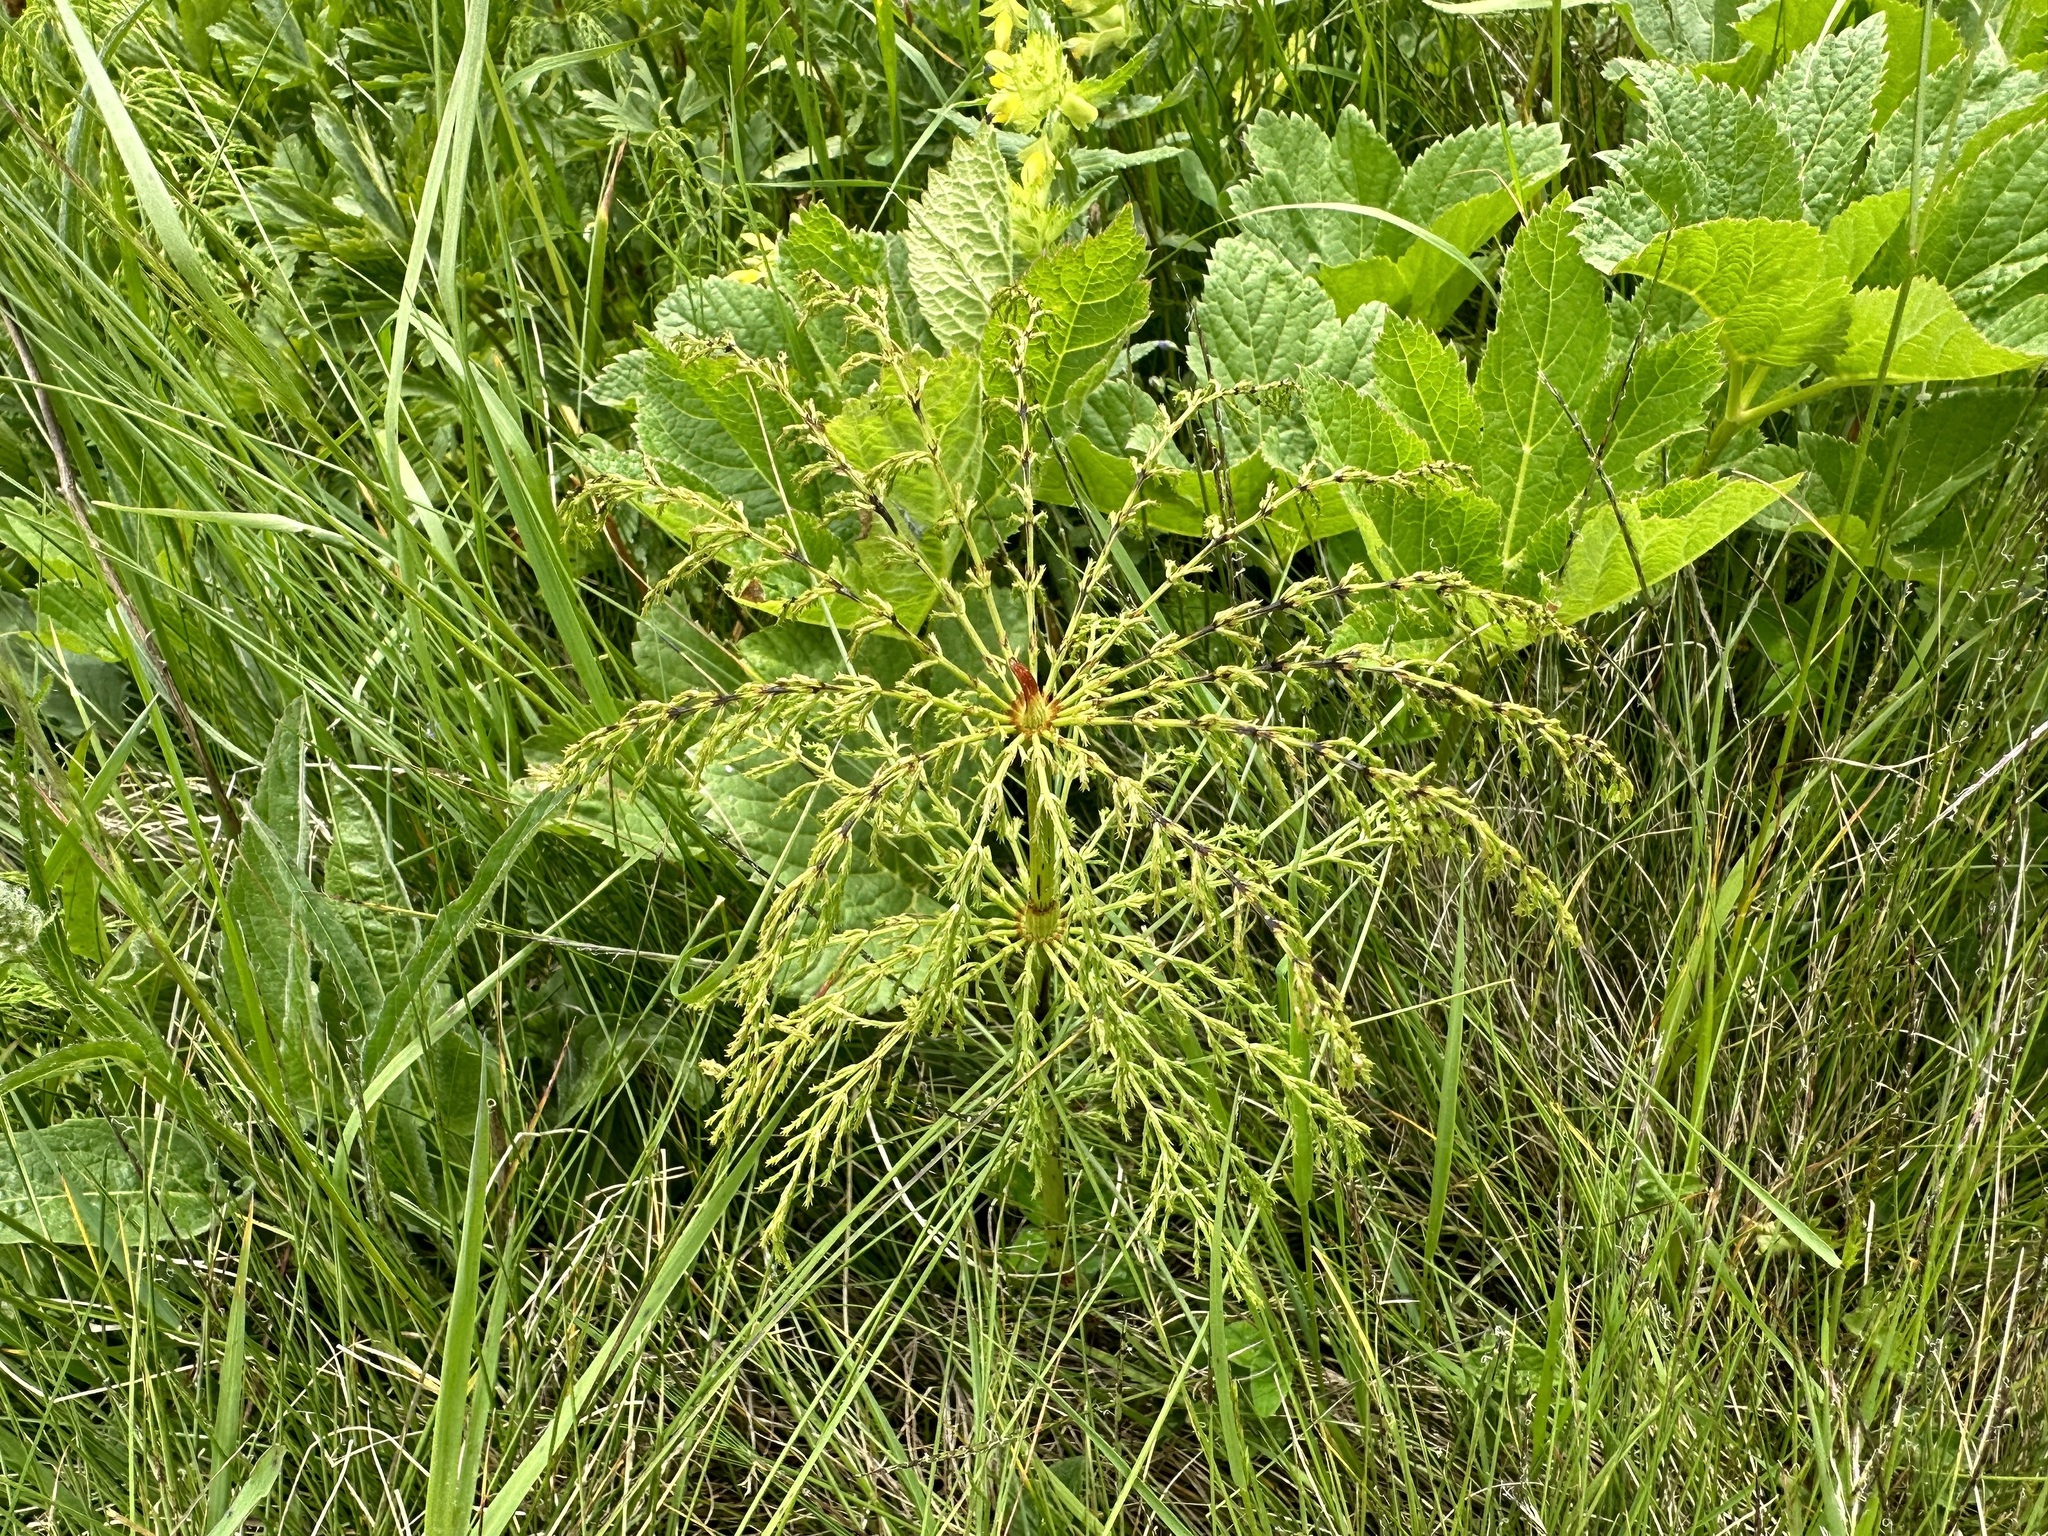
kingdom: Plantae
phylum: Tracheophyta
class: Polypodiopsida
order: Equisetales
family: Equisetaceae
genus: Equisetum
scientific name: Equisetum sylvaticum
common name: Wood horsetail
